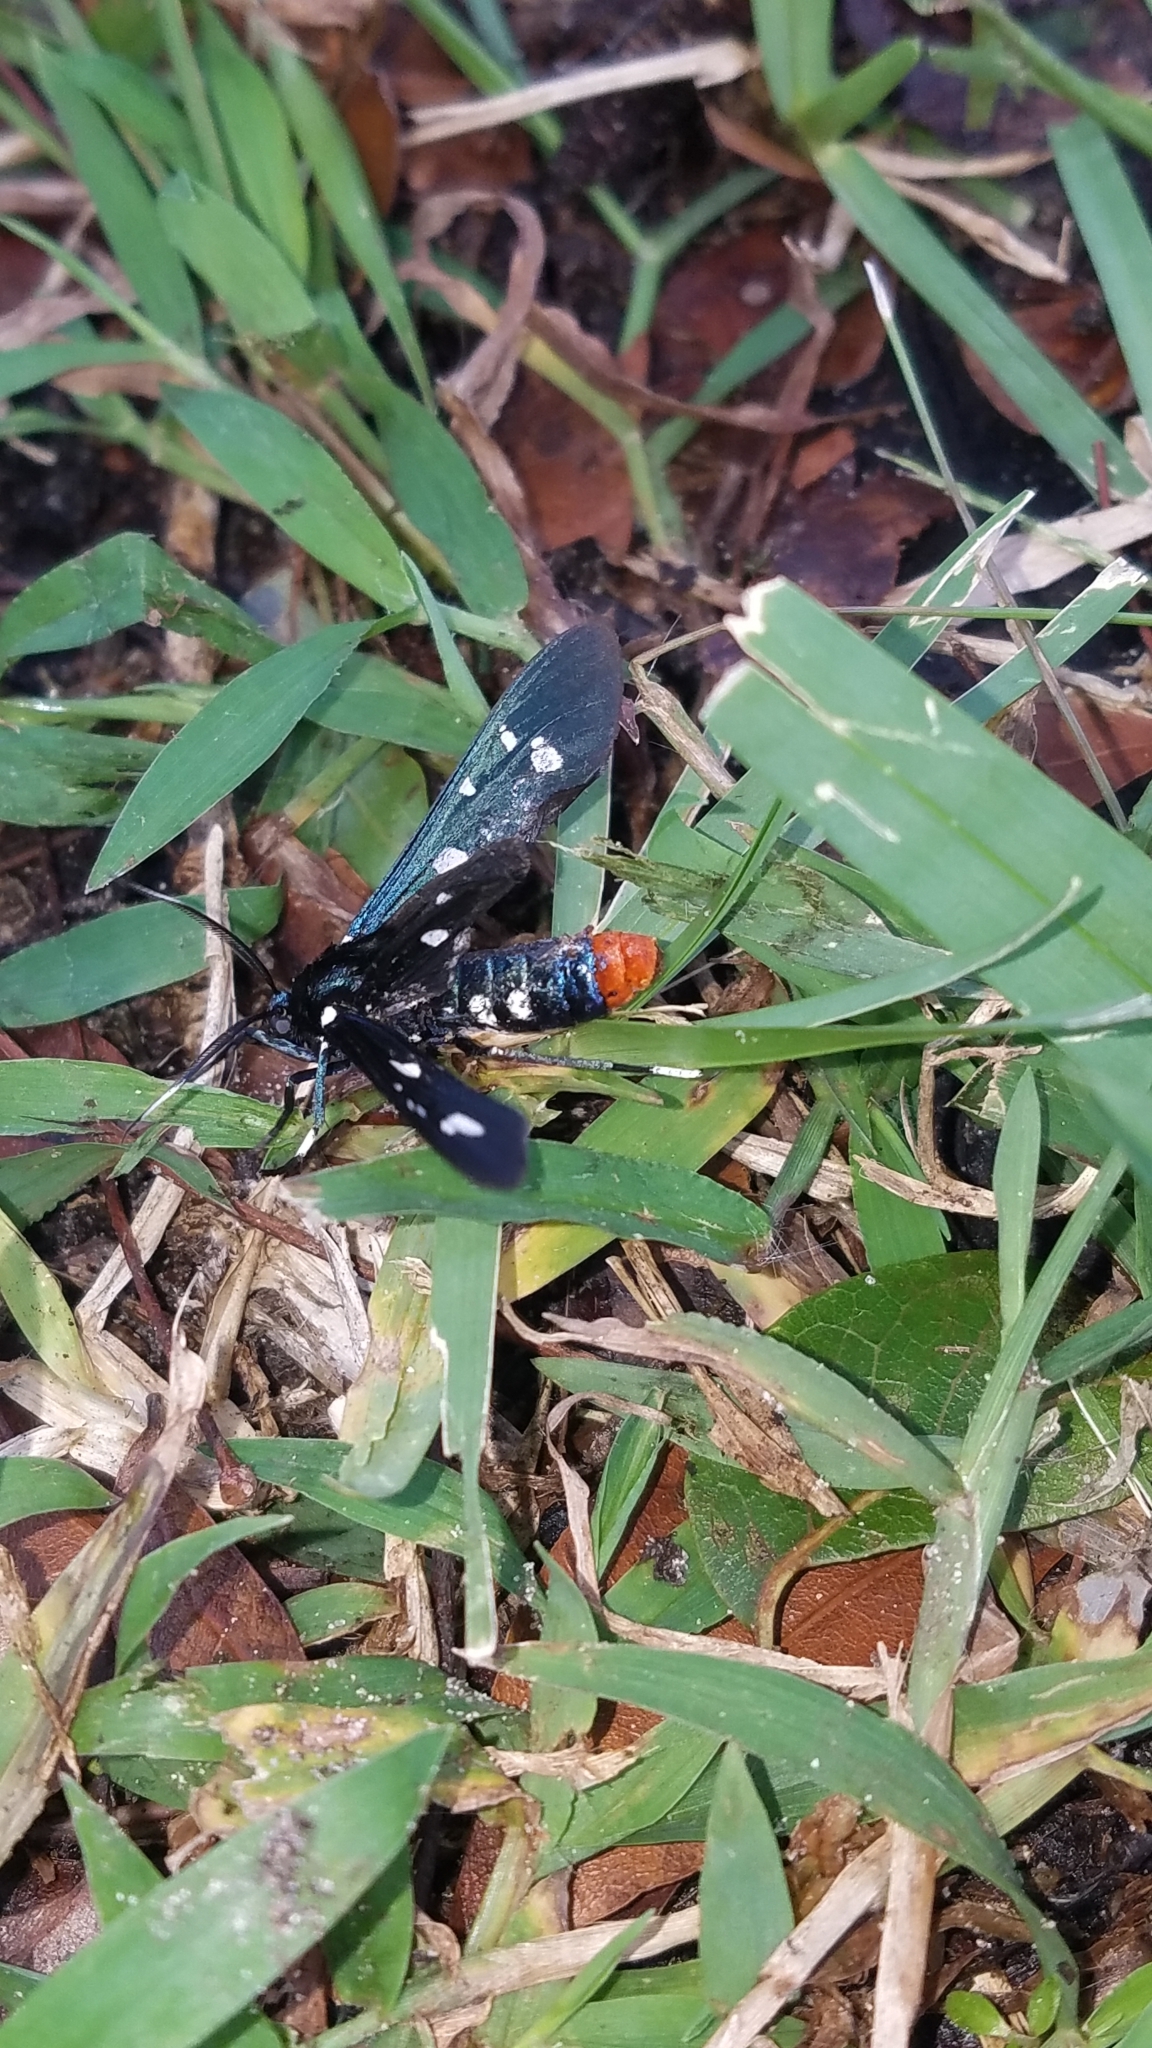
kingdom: Animalia
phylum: Arthropoda
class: Insecta
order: Lepidoptera
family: Erebidae
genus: Syntomeida
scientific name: Syntomeida epilais
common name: Polka-dot wasp moth
